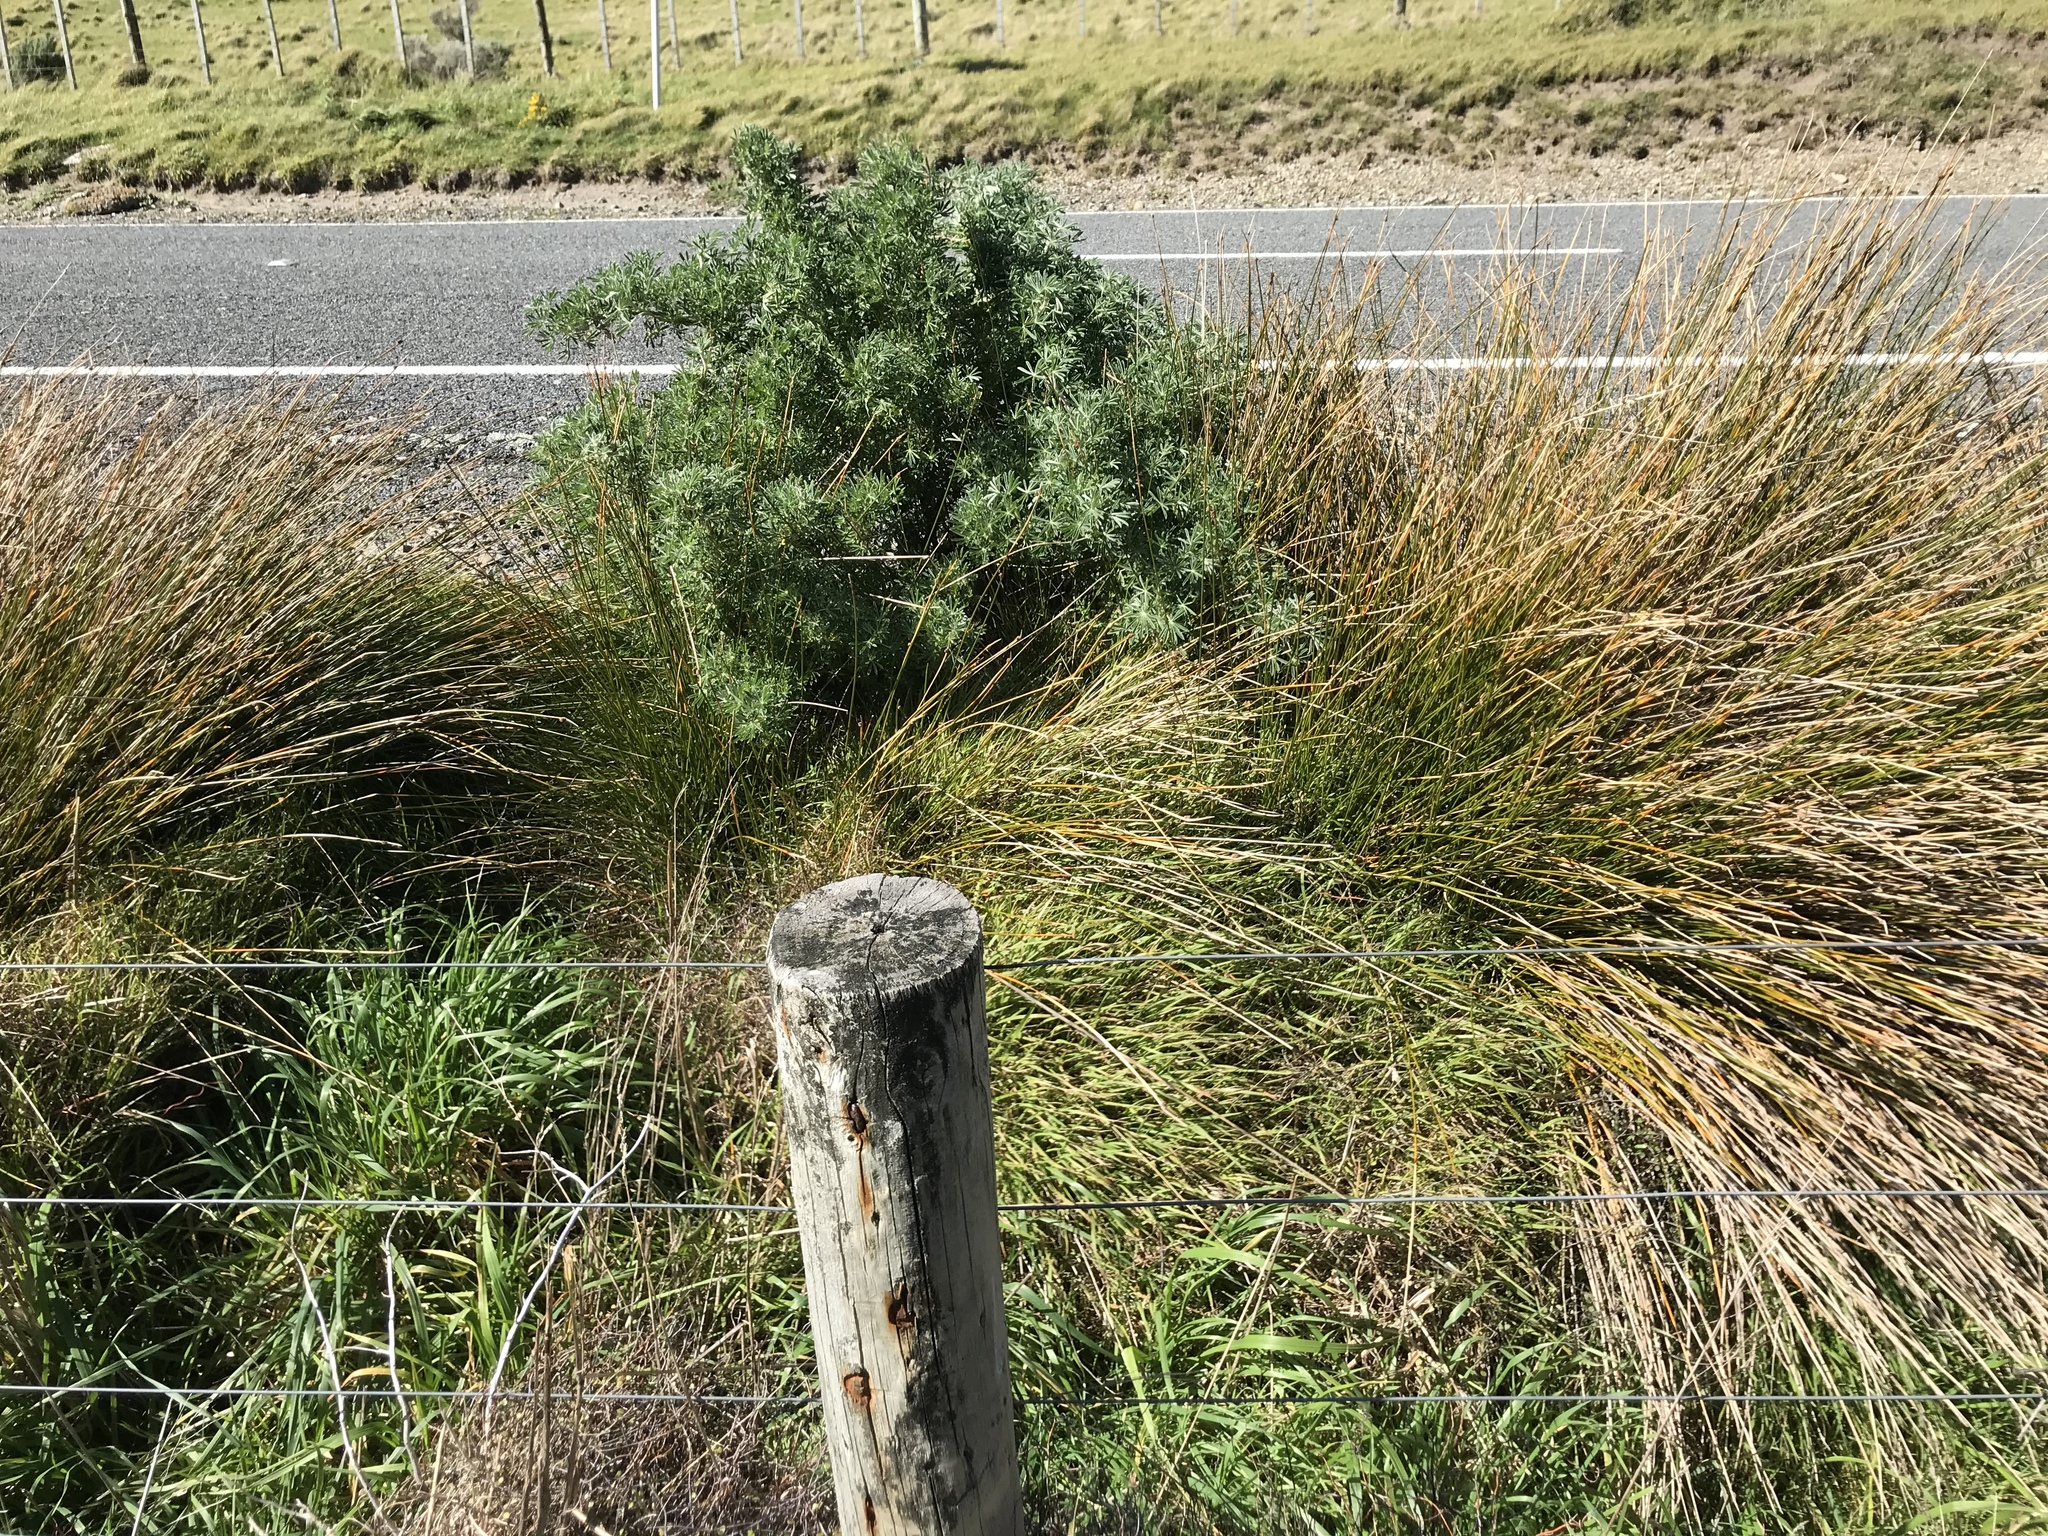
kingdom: Plantae
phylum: Tracheophyta
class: Magnoliopsida
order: Fabales
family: Fabaceae
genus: Lupinus
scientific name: Lupinus arboreus
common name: Yellow bush lupine
